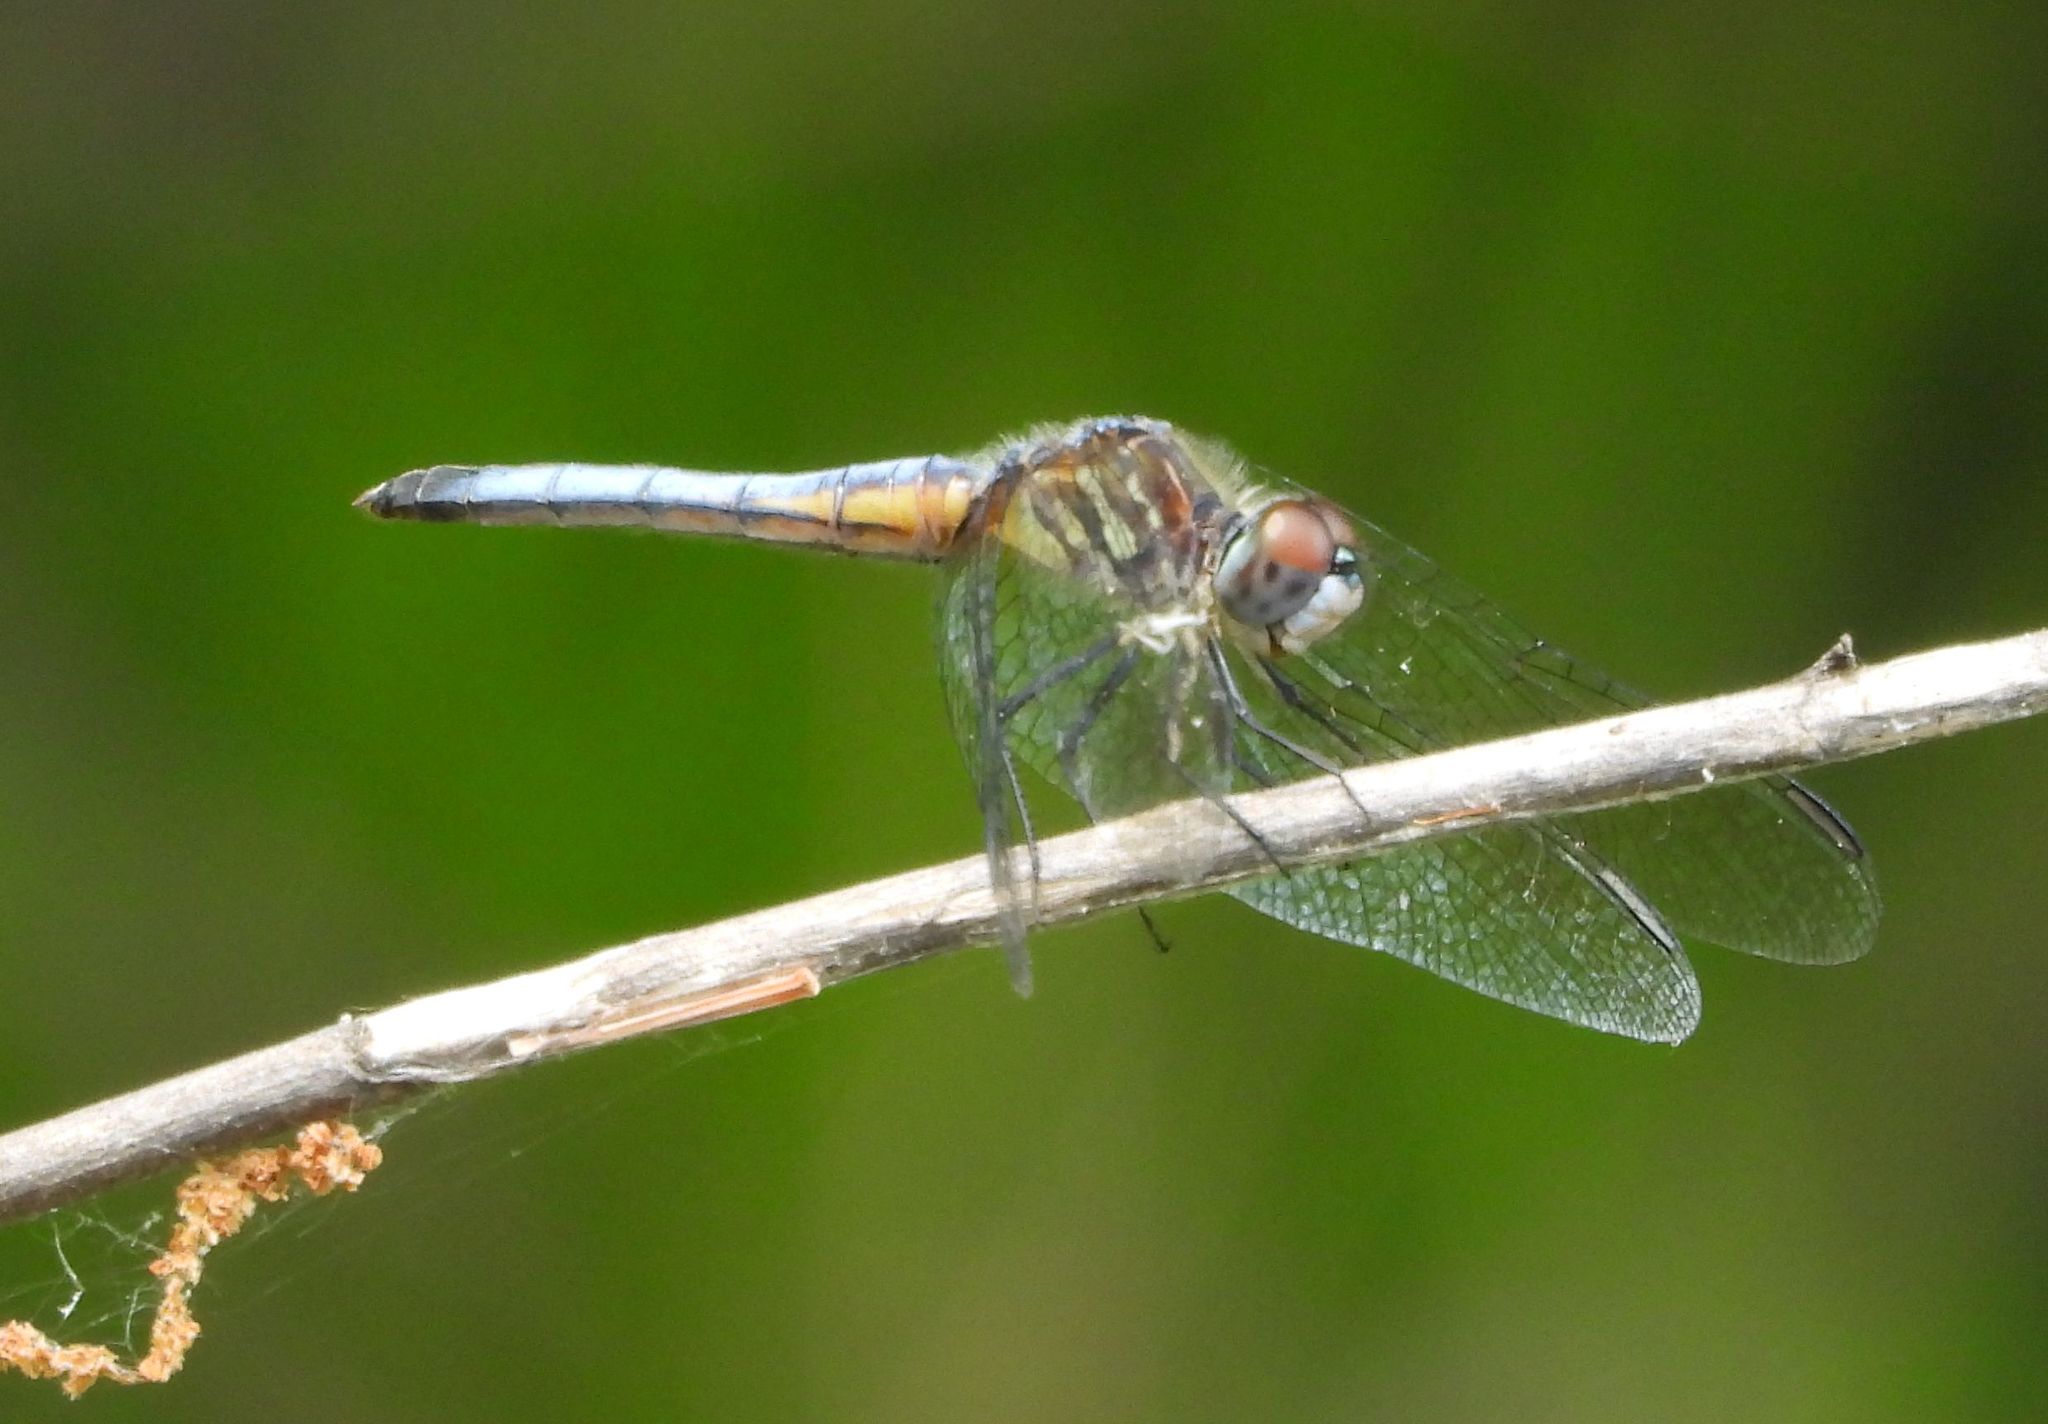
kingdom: Animalia
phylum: Arthropoda
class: Insecta
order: Odonata
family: Libellulidae
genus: Pachydiplax
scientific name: Pachydiplax longipennis
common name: Blue dasher
